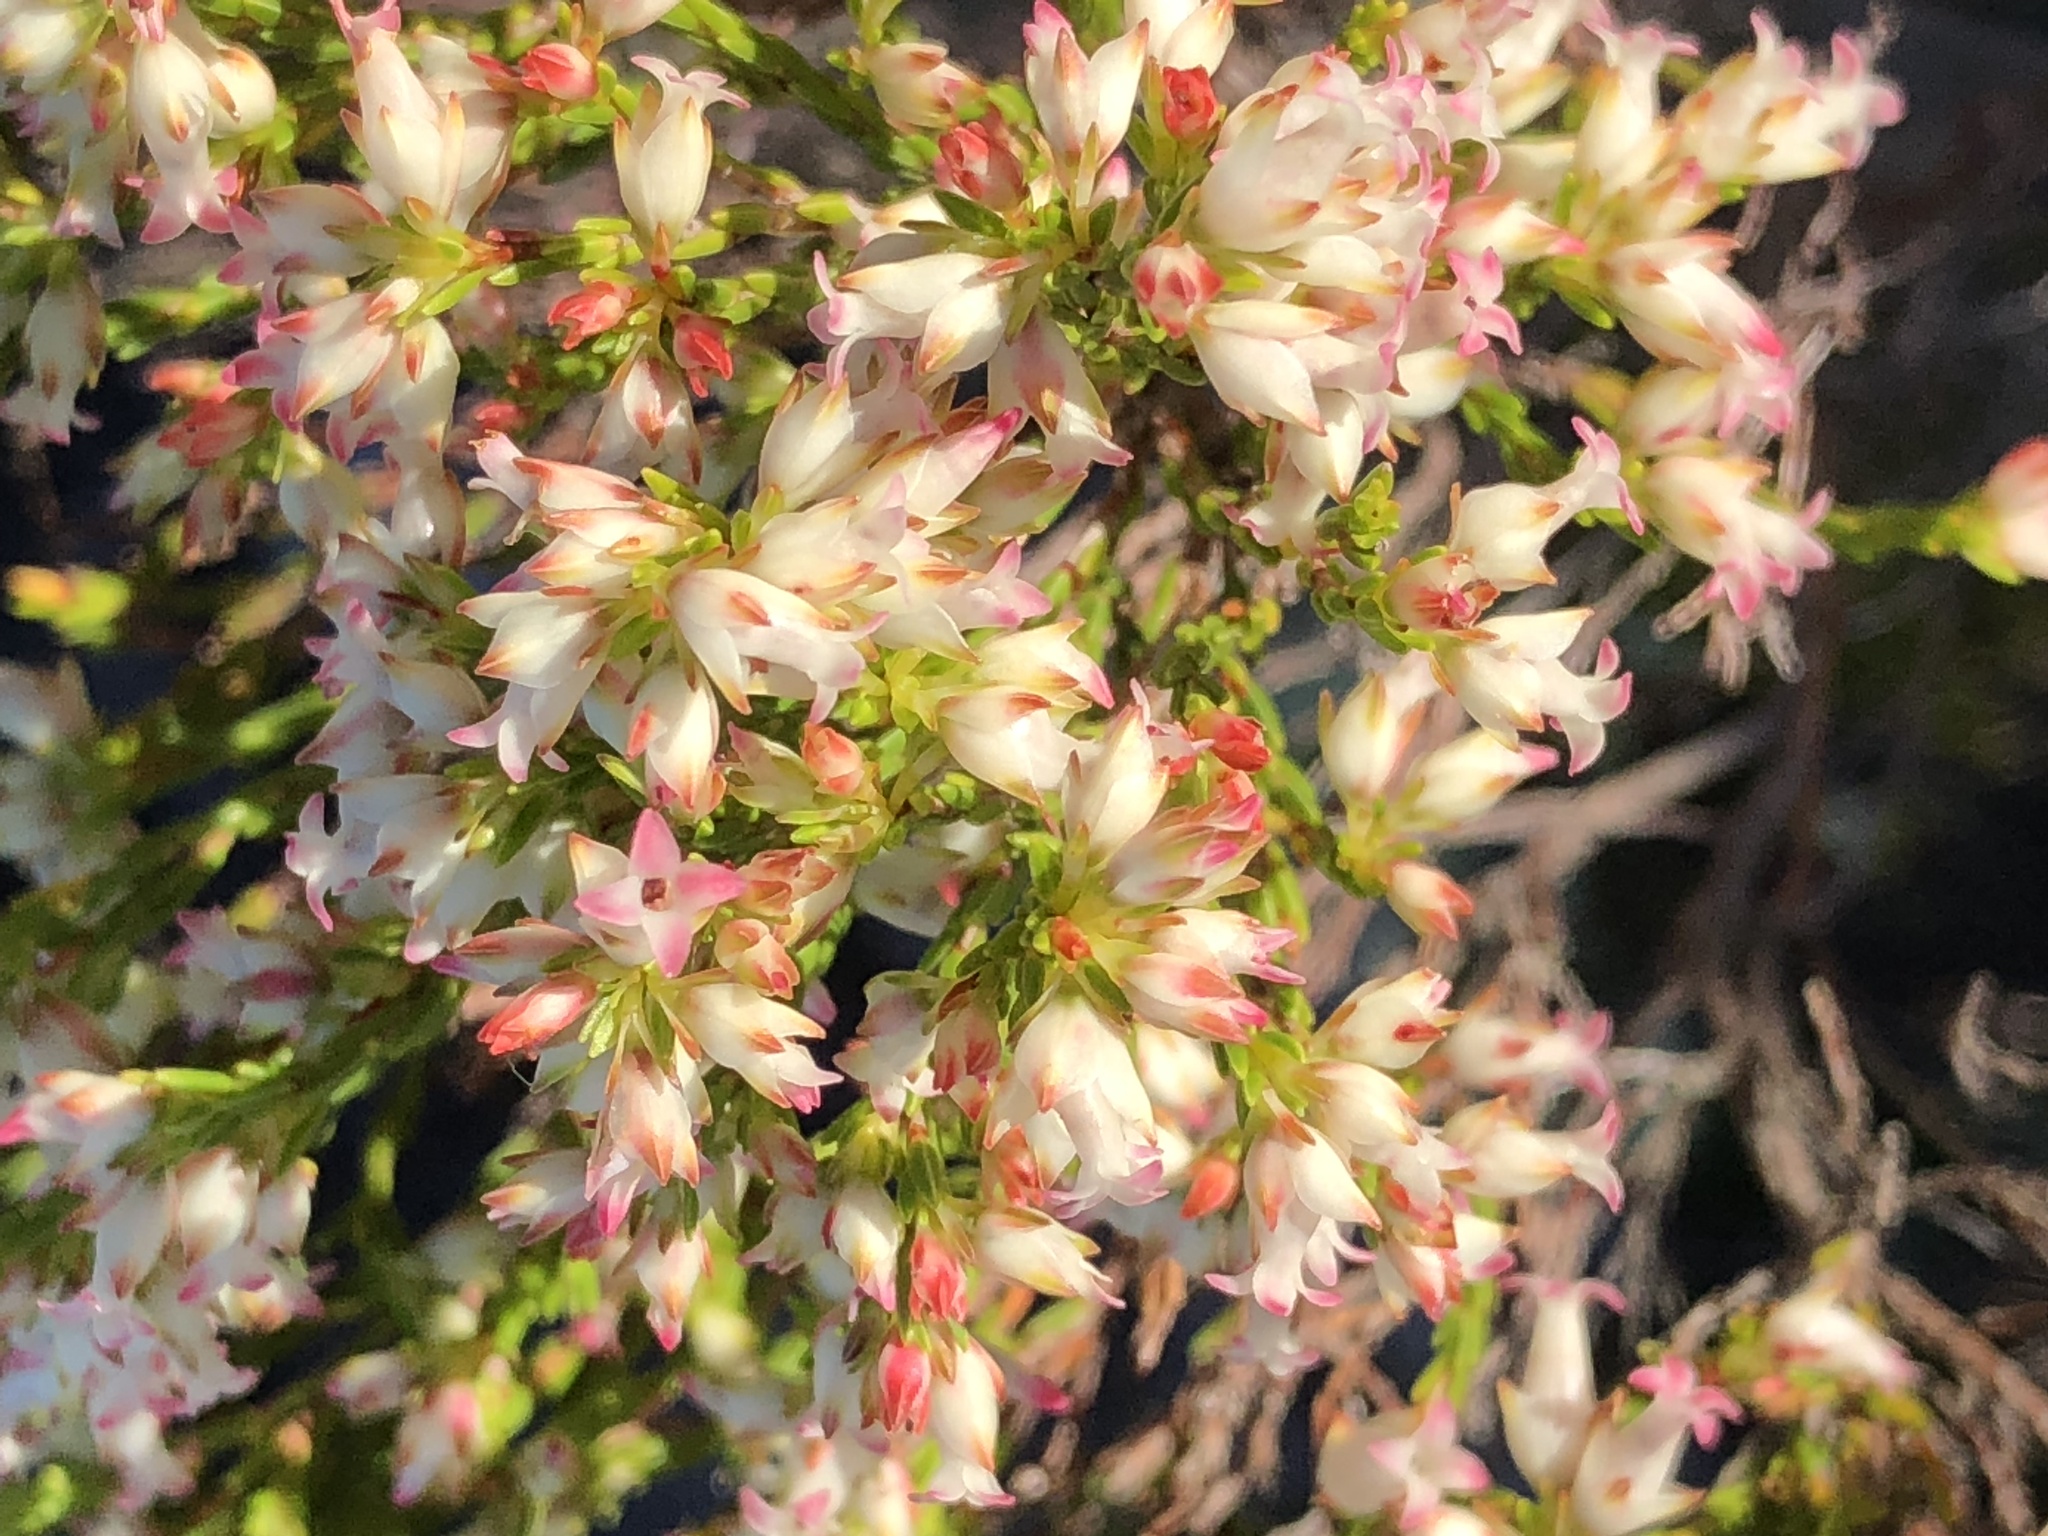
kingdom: Plantae
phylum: Tracheophyta
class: Magnoliopsida
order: Ericales
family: Ericaceae
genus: Erica
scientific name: Erica lutea
